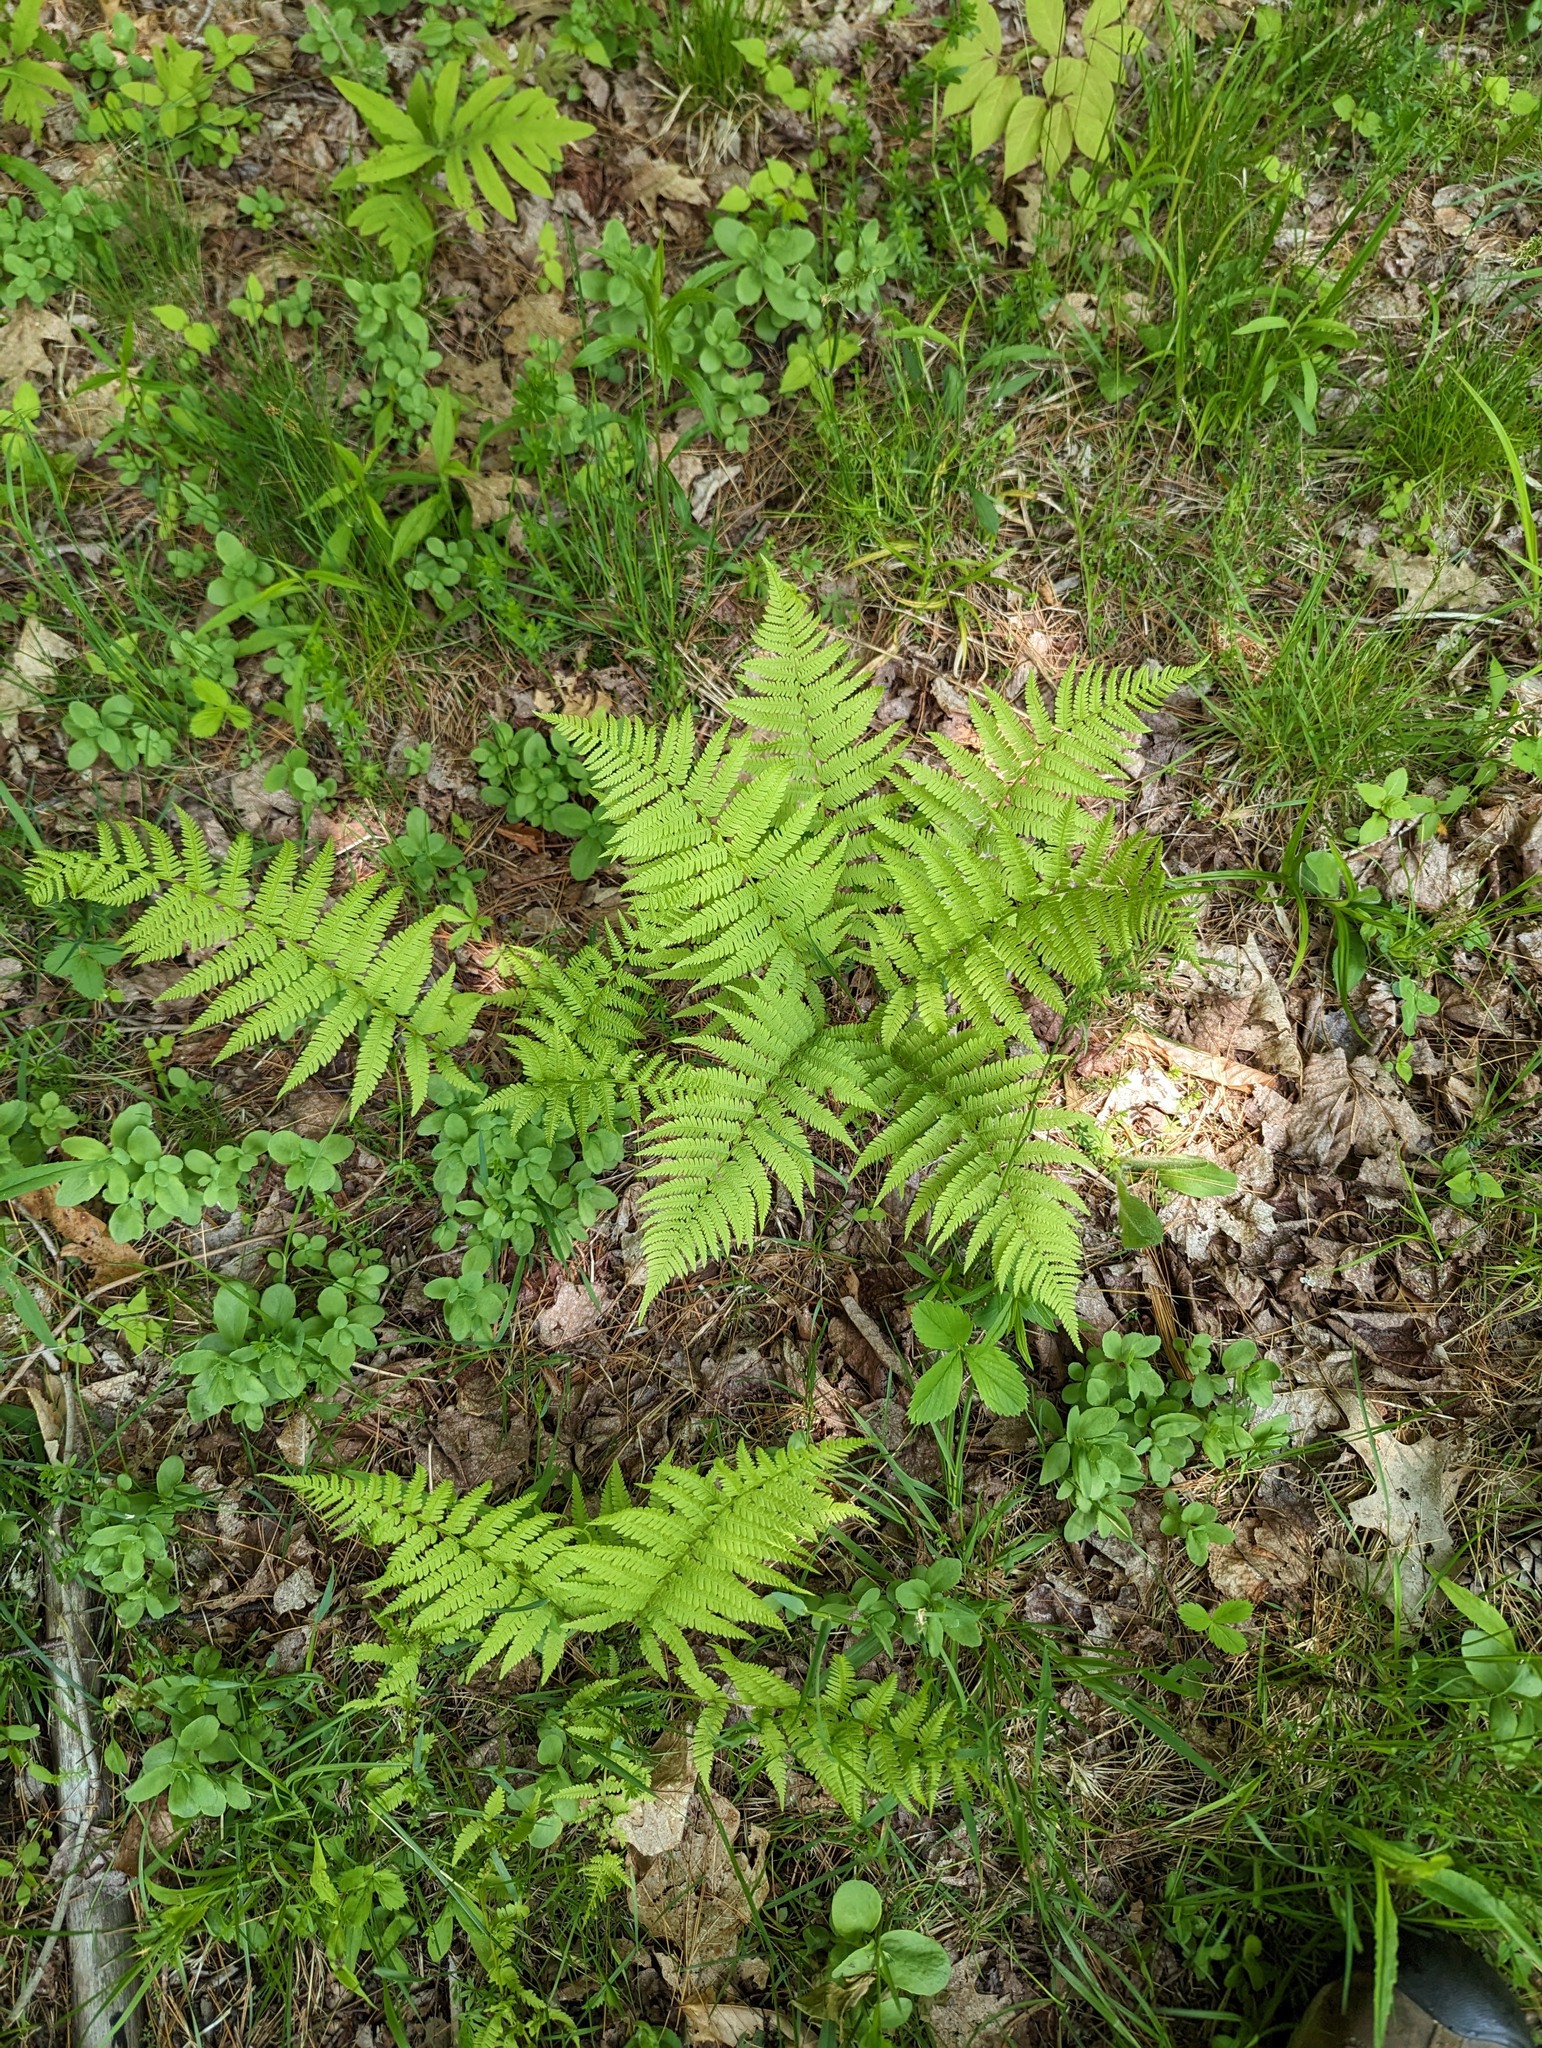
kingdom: Plantae
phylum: Tracheophyta
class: Polypodiopsida
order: Polypodiales
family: Athyriaceae
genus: Athyrium
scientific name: Athyrium angustum
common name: Northern lady fern
